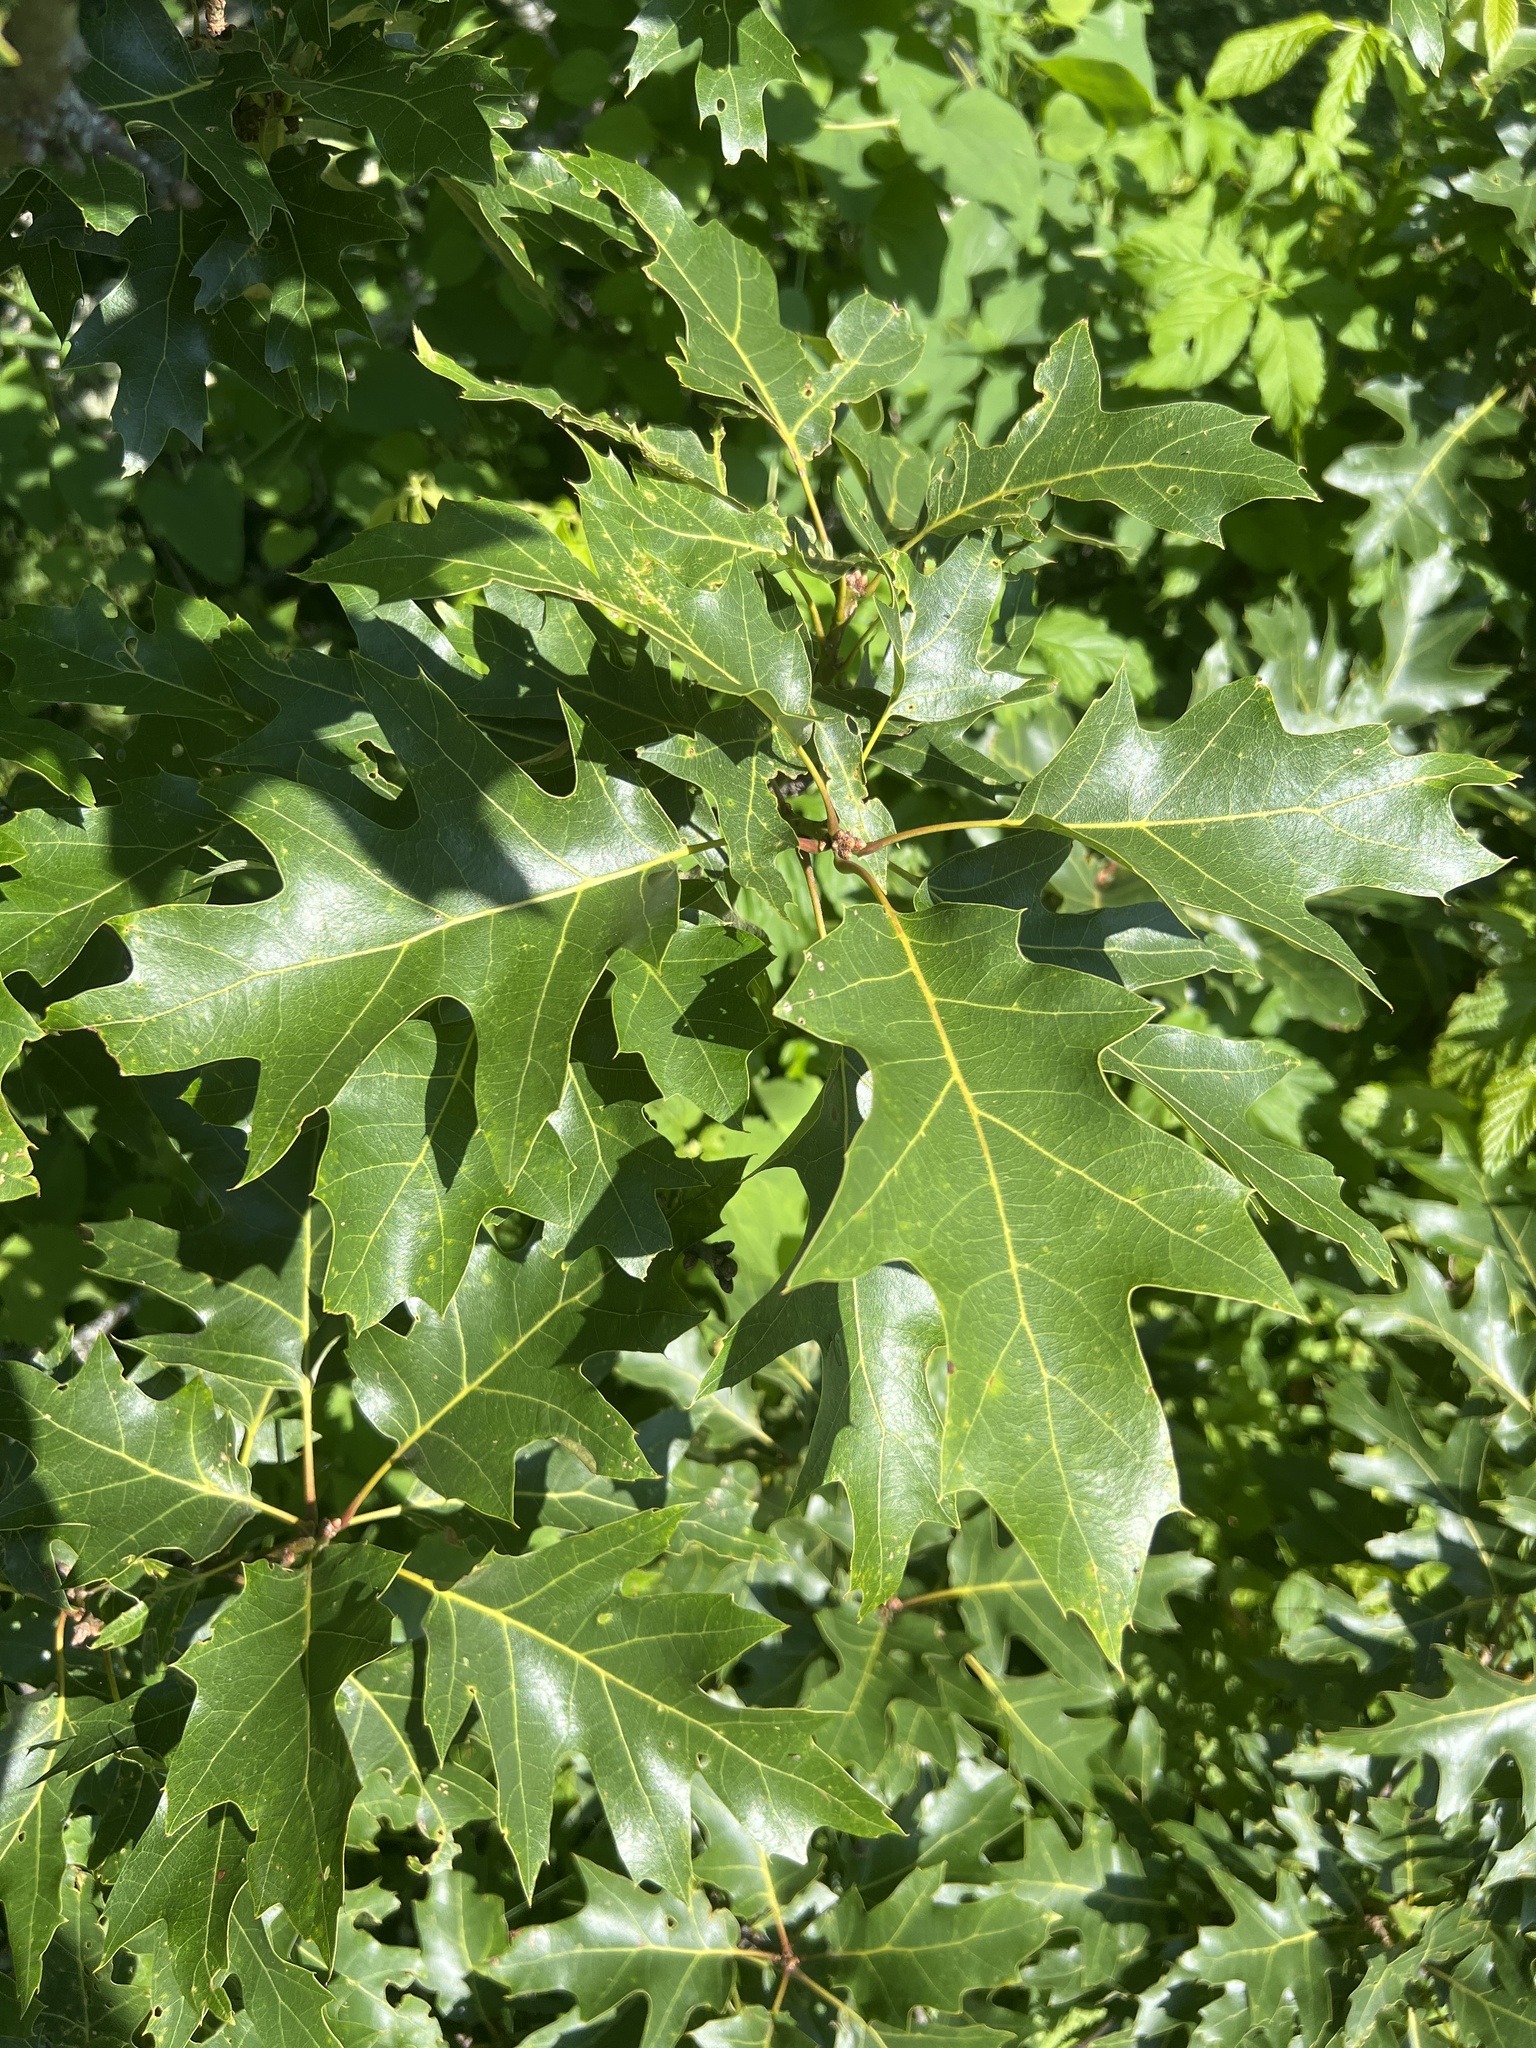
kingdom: Plantae
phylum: Tracheophyta
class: Magnoliopsida
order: Fagales
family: Fagaceae
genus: Quercus
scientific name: Quercus rubra
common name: Red oak
